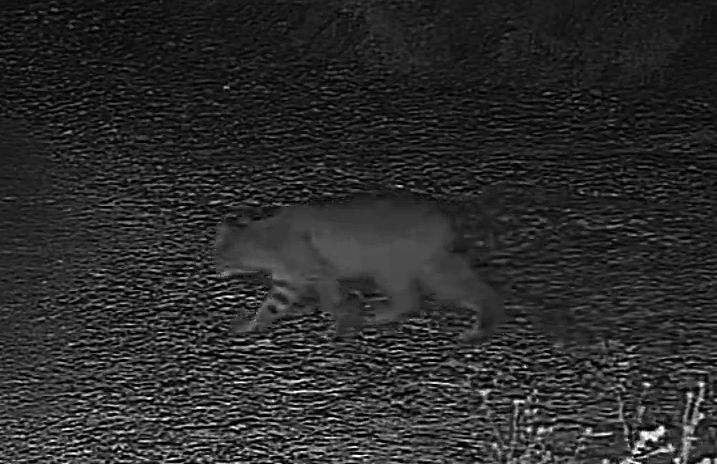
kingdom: Animalia
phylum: Chordata
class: Mammalia
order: Carnivora
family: Felidae
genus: Lynx
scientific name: Lynx rufus
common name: Bobcat
